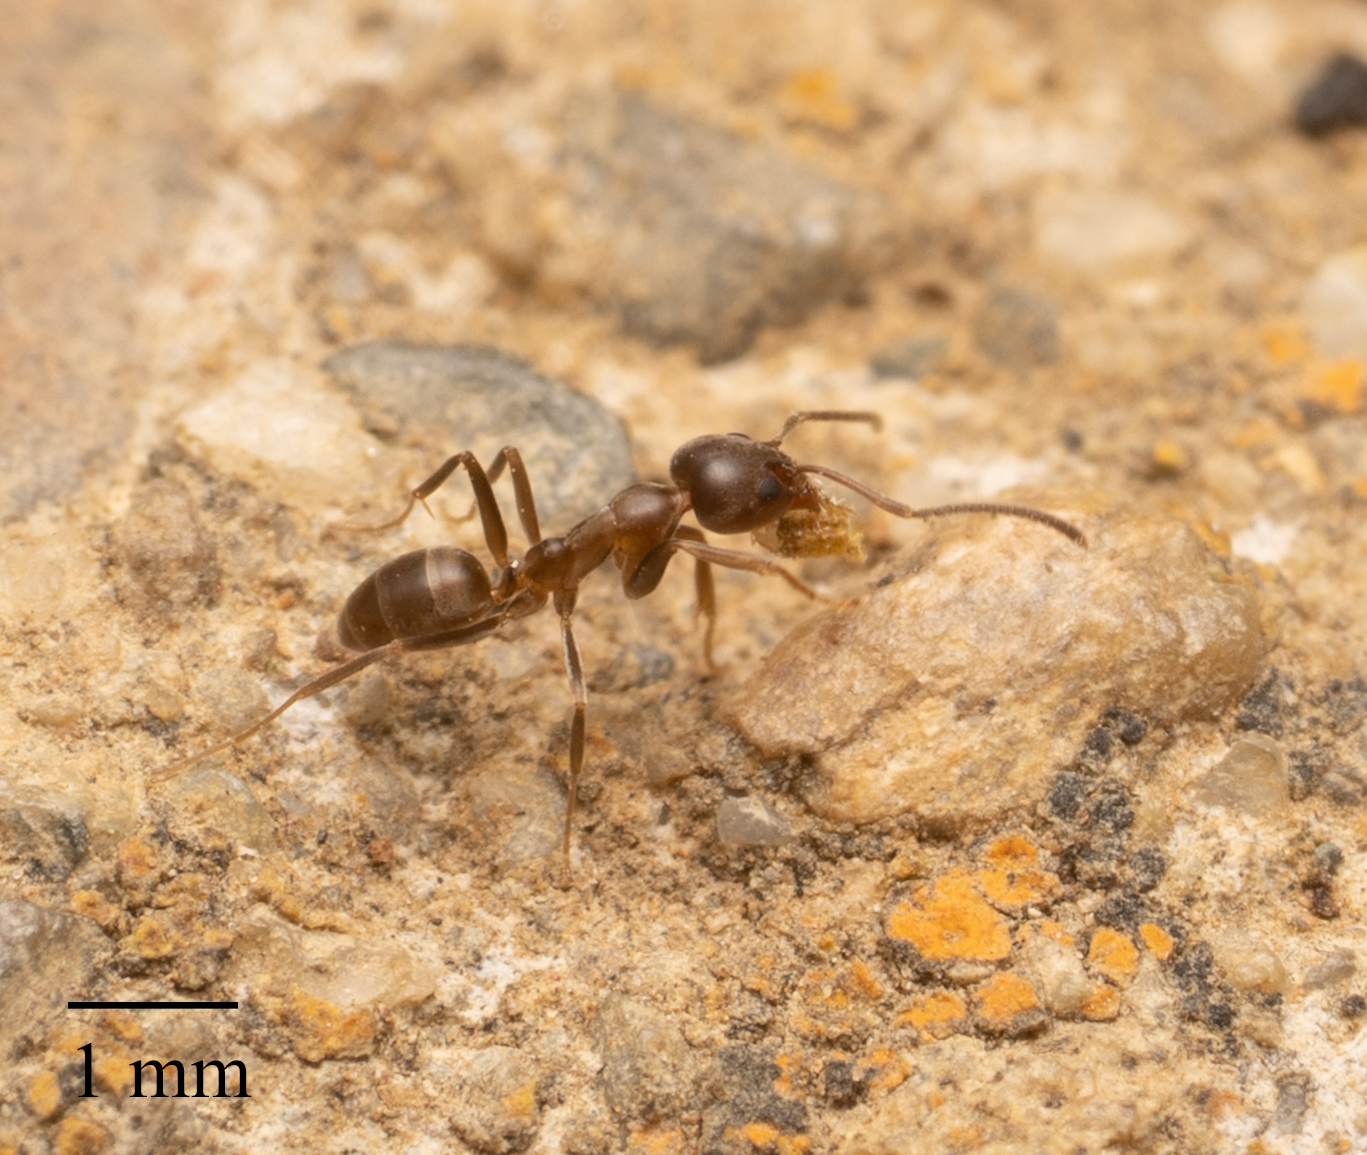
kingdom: Animalia
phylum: Arthropoda
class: Insecta
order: Hymenoptera
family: Formicidae
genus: Linepithema
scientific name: Linepithema humile
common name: Argentine ant
